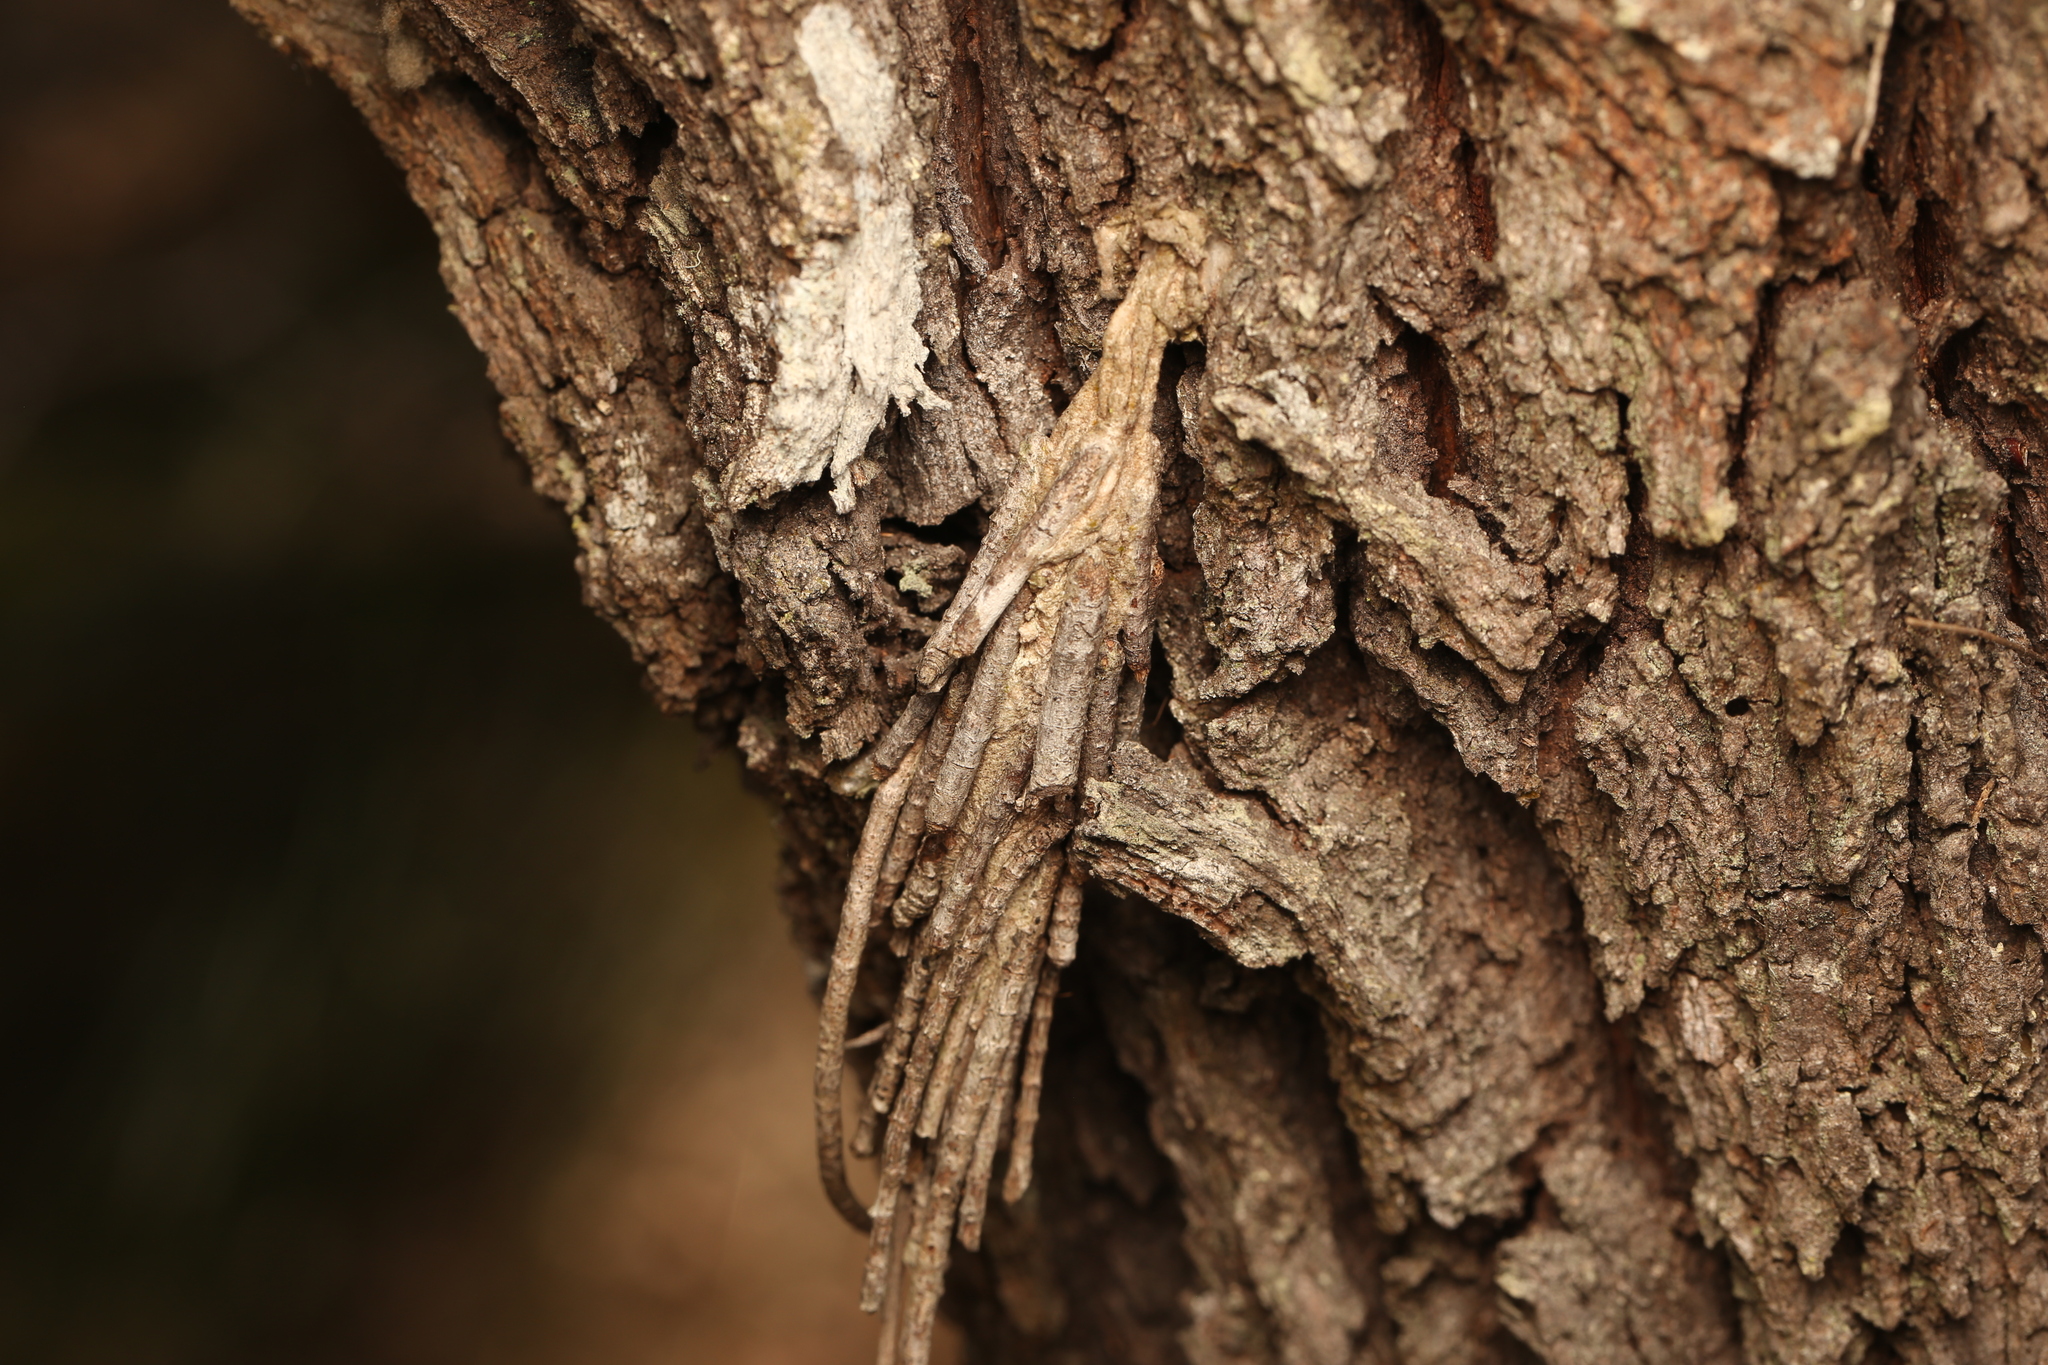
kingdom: Animalia
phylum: Arthropoda
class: Insecta
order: Lepidoptera
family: Psychidae
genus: Metura
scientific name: Metura elongatus
